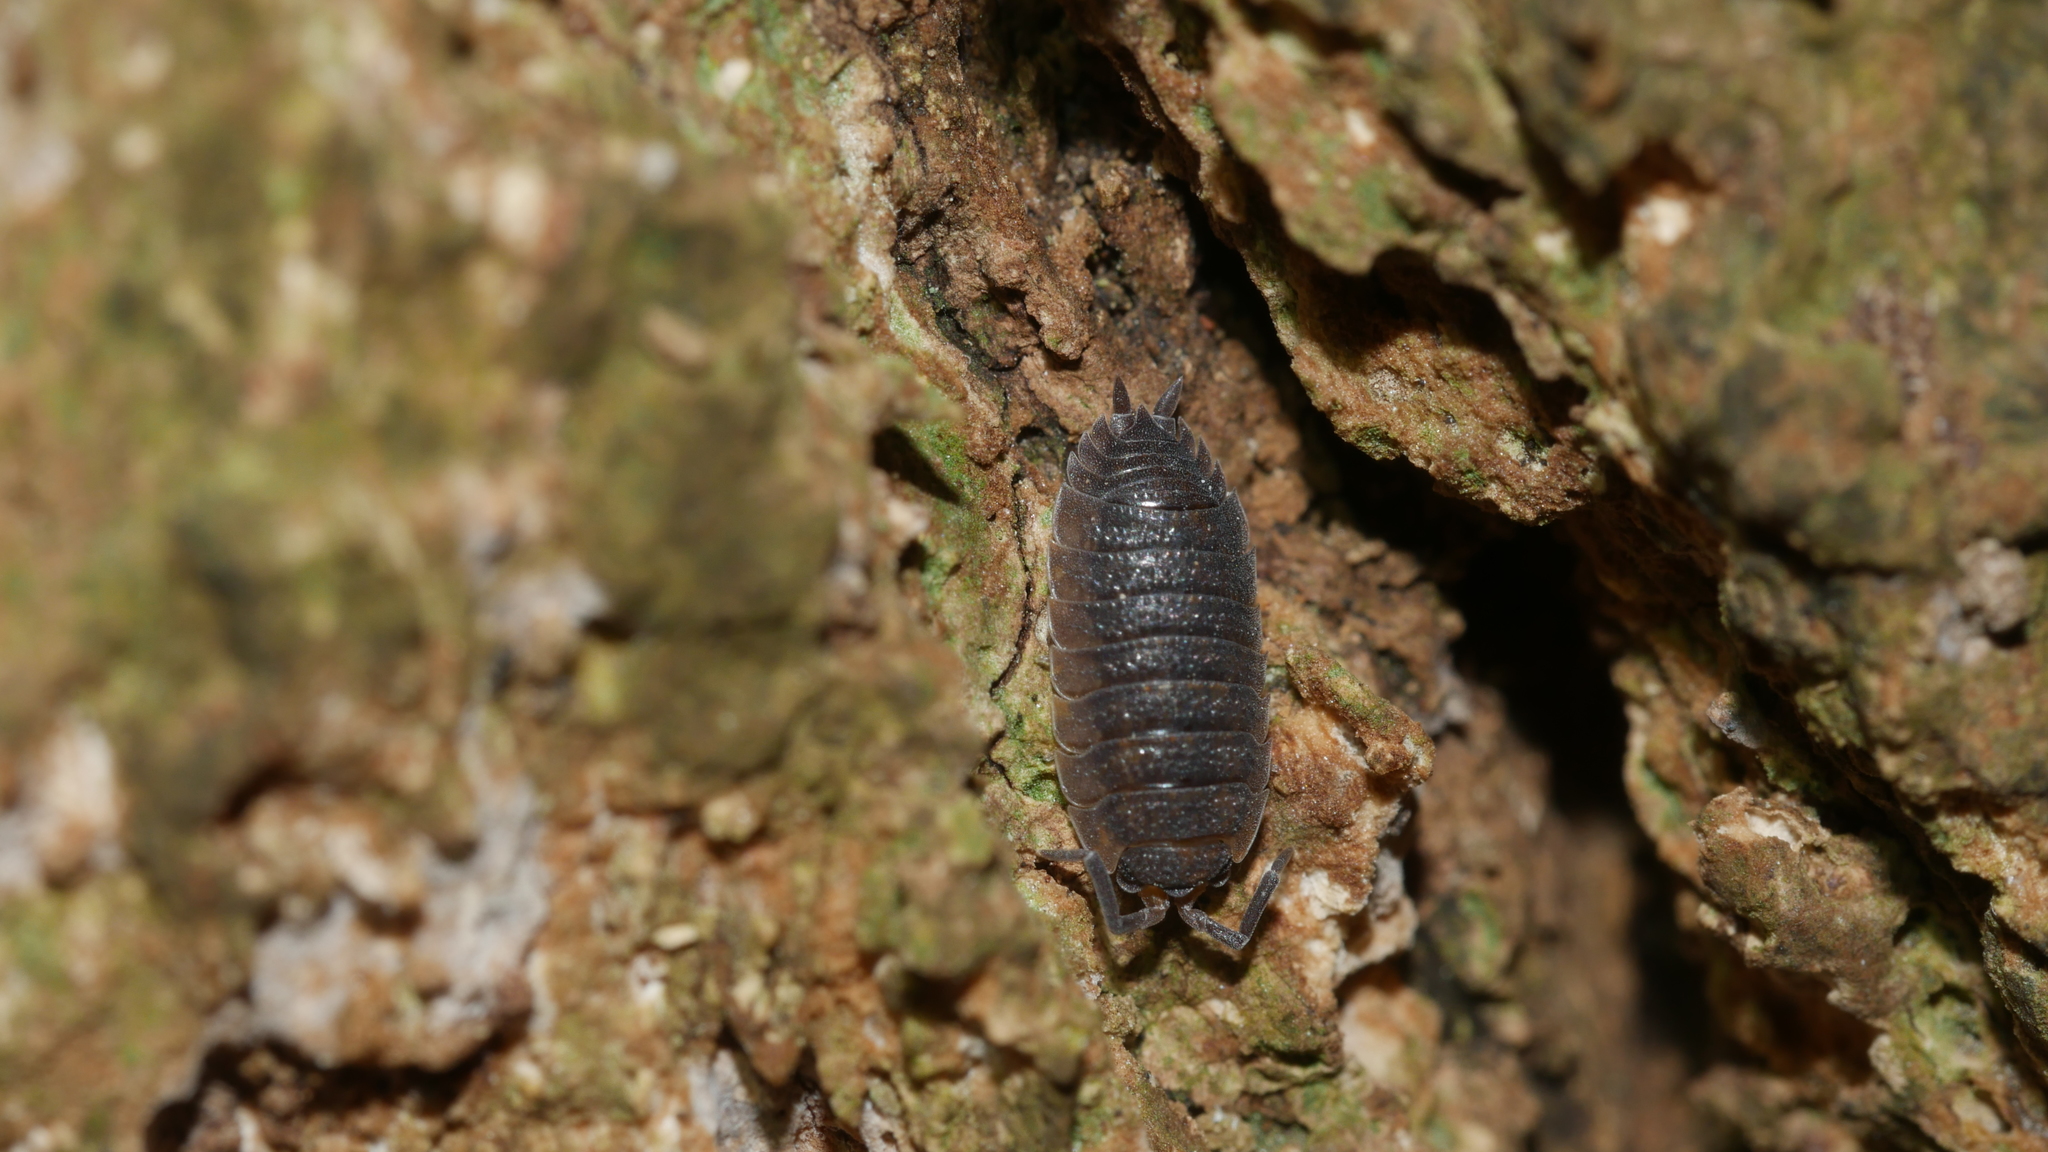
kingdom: Animalia
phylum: Arthropoda
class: Malacostraca
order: Isopoda
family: Porcellionidae
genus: Porcellio
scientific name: Porcellio scaber
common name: Common rough woodlouse
